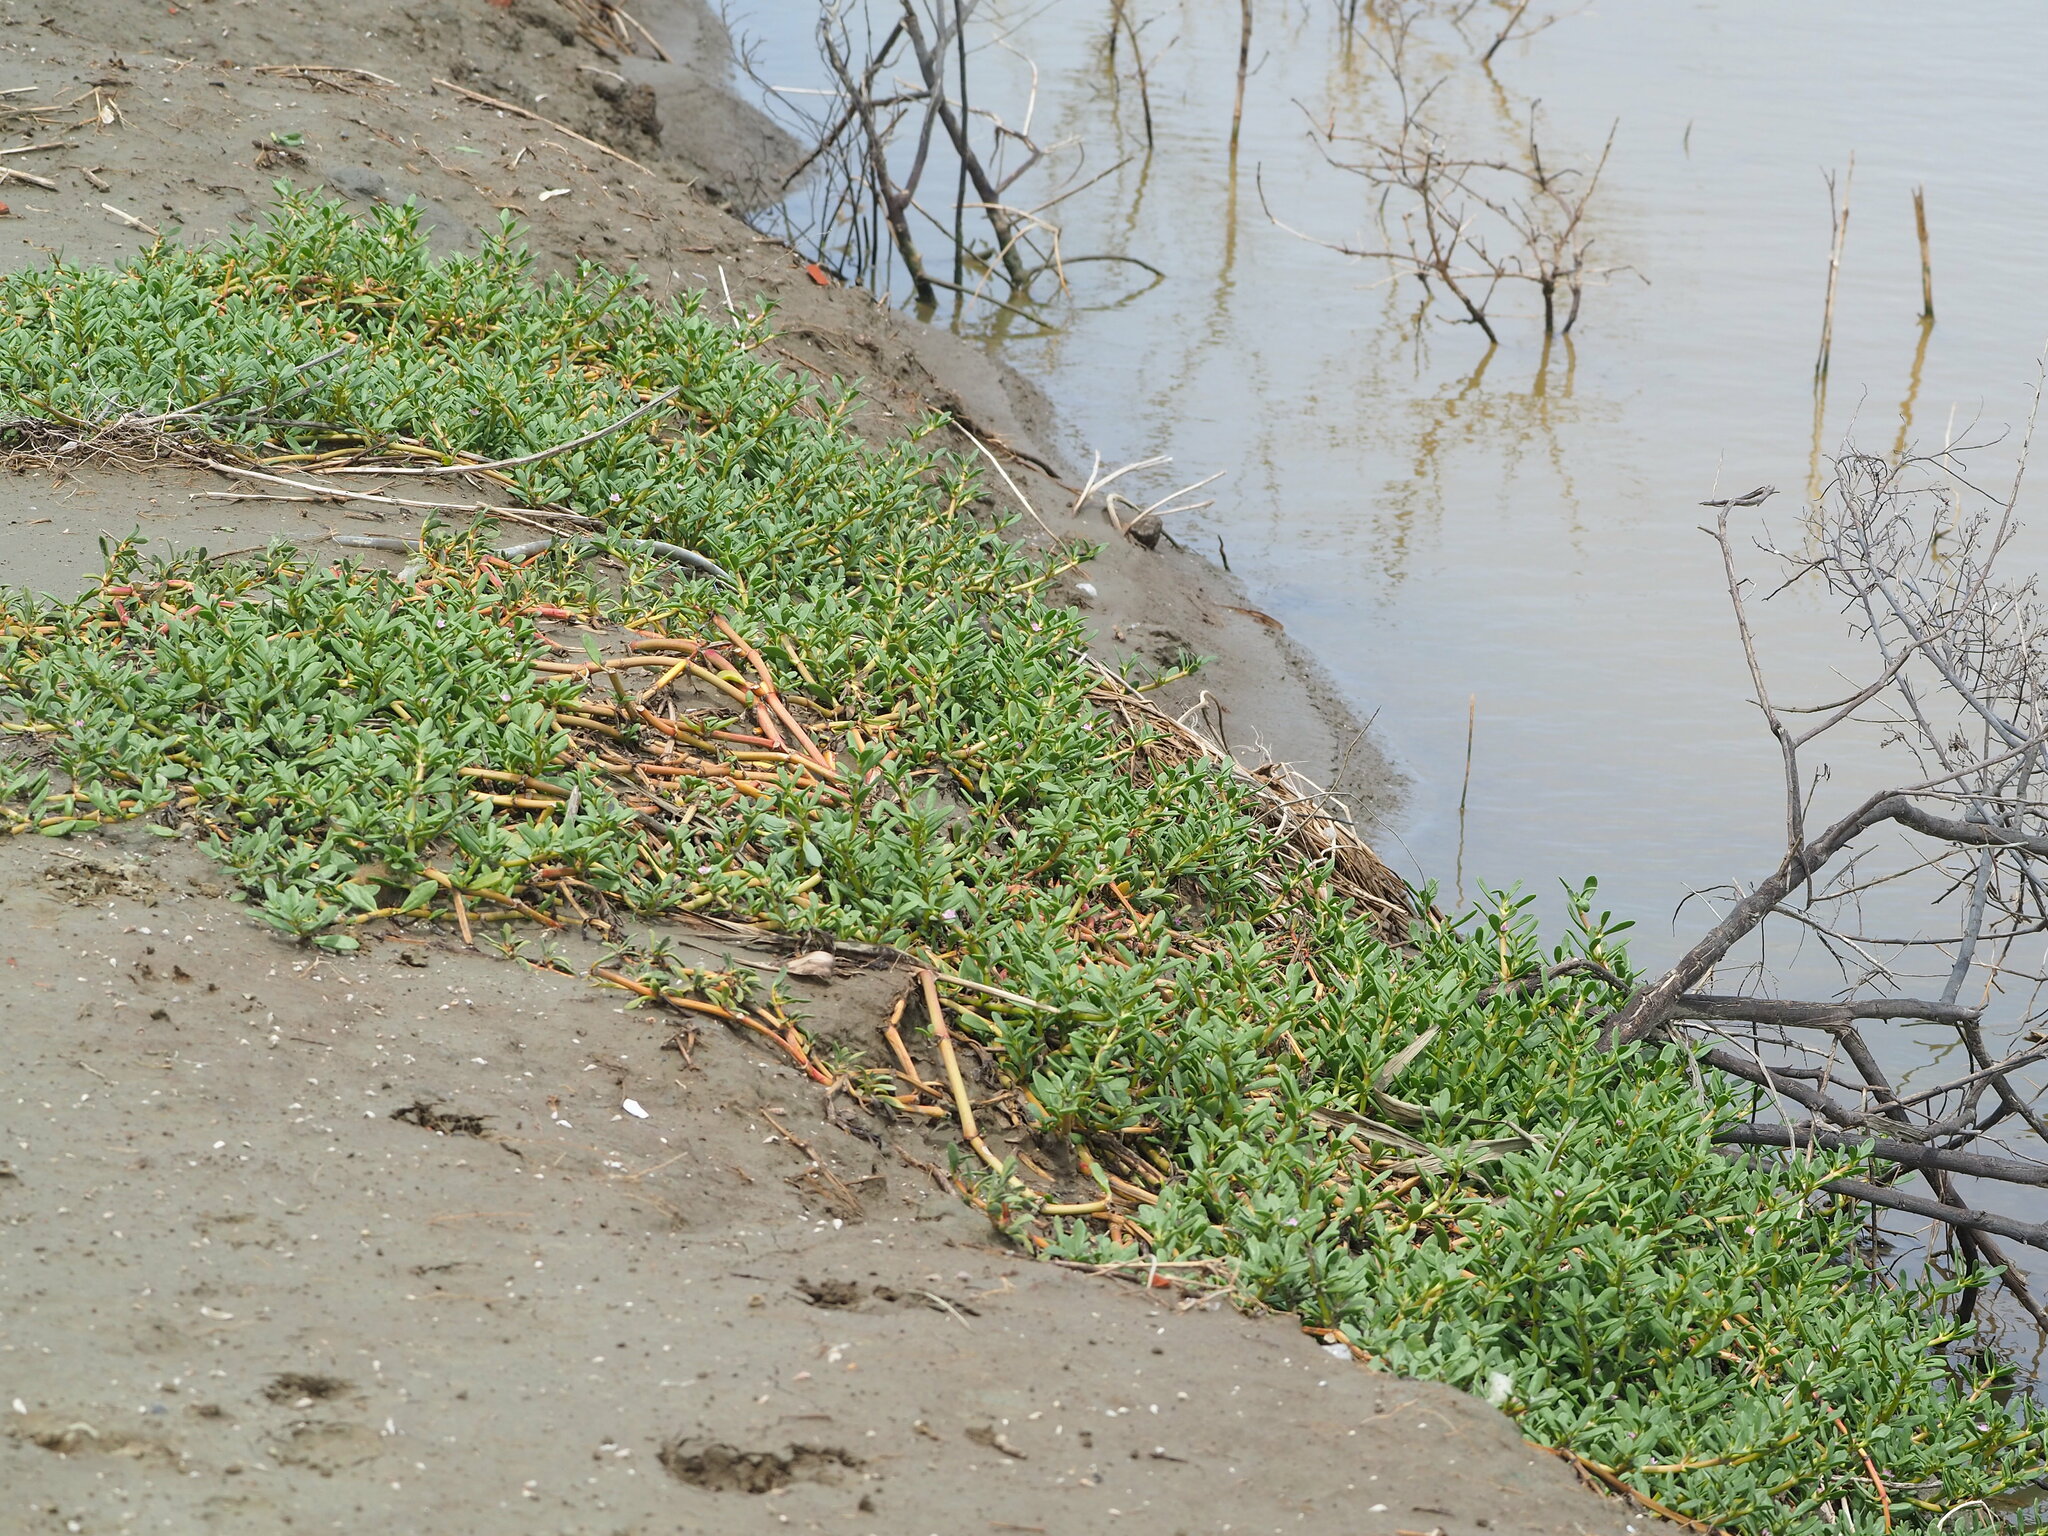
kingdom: Plantae
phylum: Tracheophyta
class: Magnoliopsida
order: Caryophyllales
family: Aizoaceae
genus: Sesuvium
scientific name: Sesuvium portulacastrum
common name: Sea-purslane
